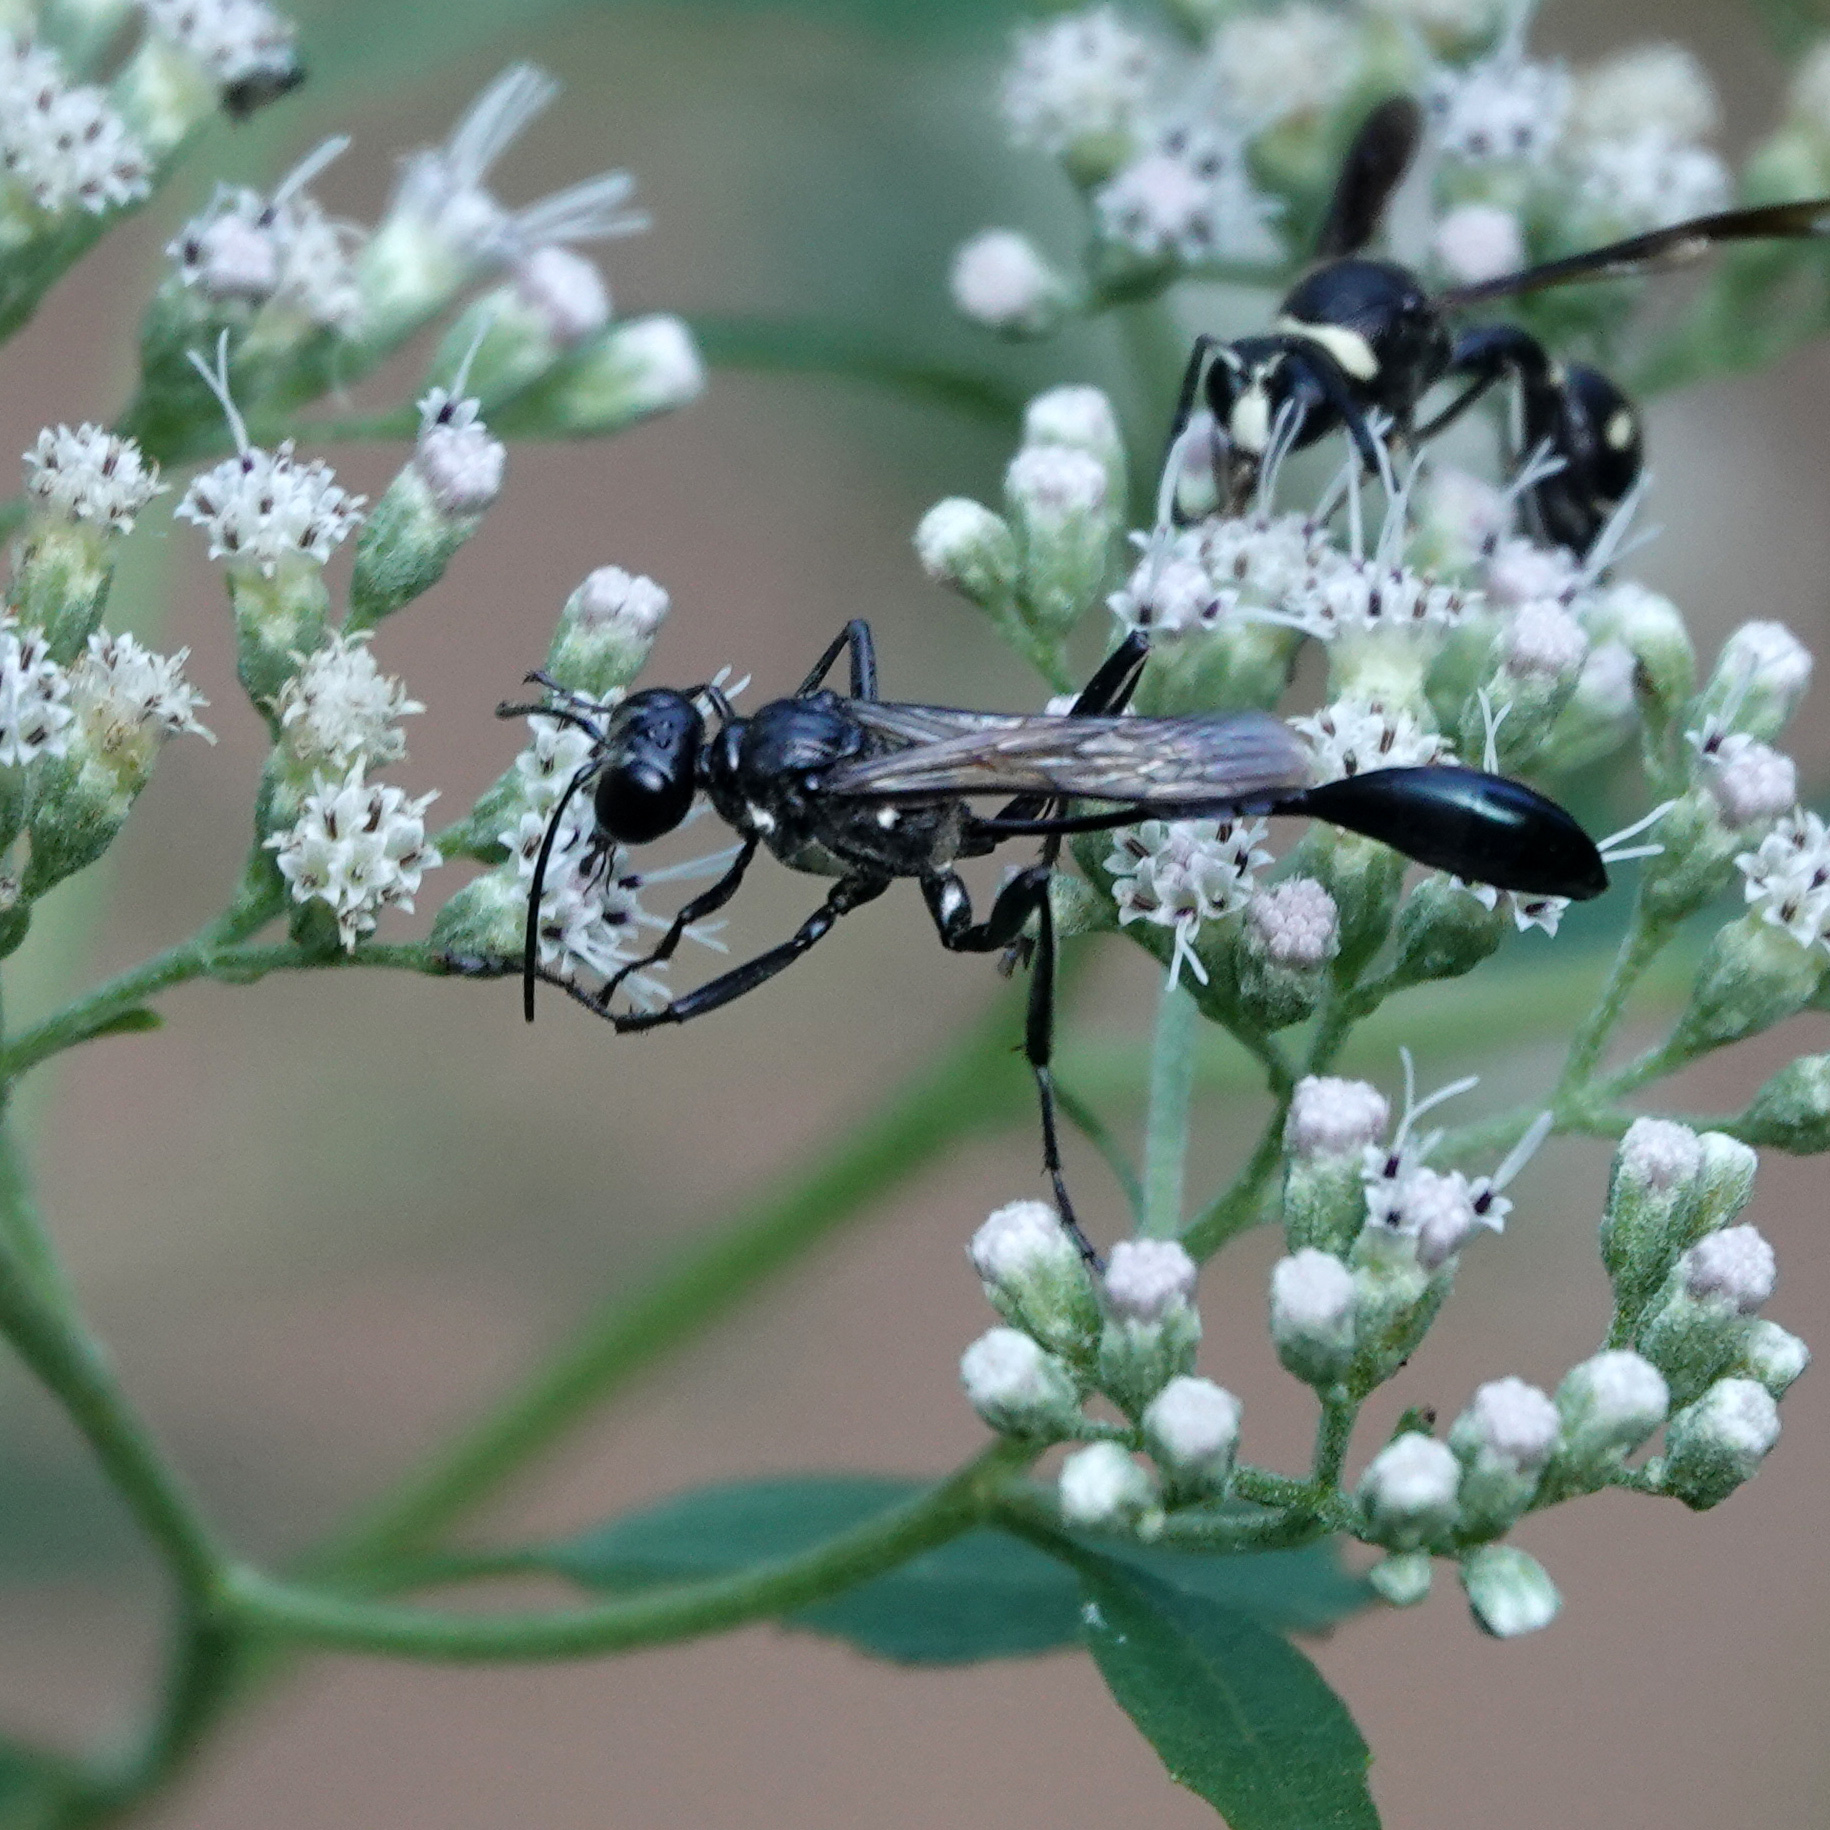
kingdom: Animalia
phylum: Arthropoda
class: Insecta
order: Hymenoptera
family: Sphecidae
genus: Eremnophila
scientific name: Eremnophila aureonotata
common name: Gold-marked thread-waisted wasp
